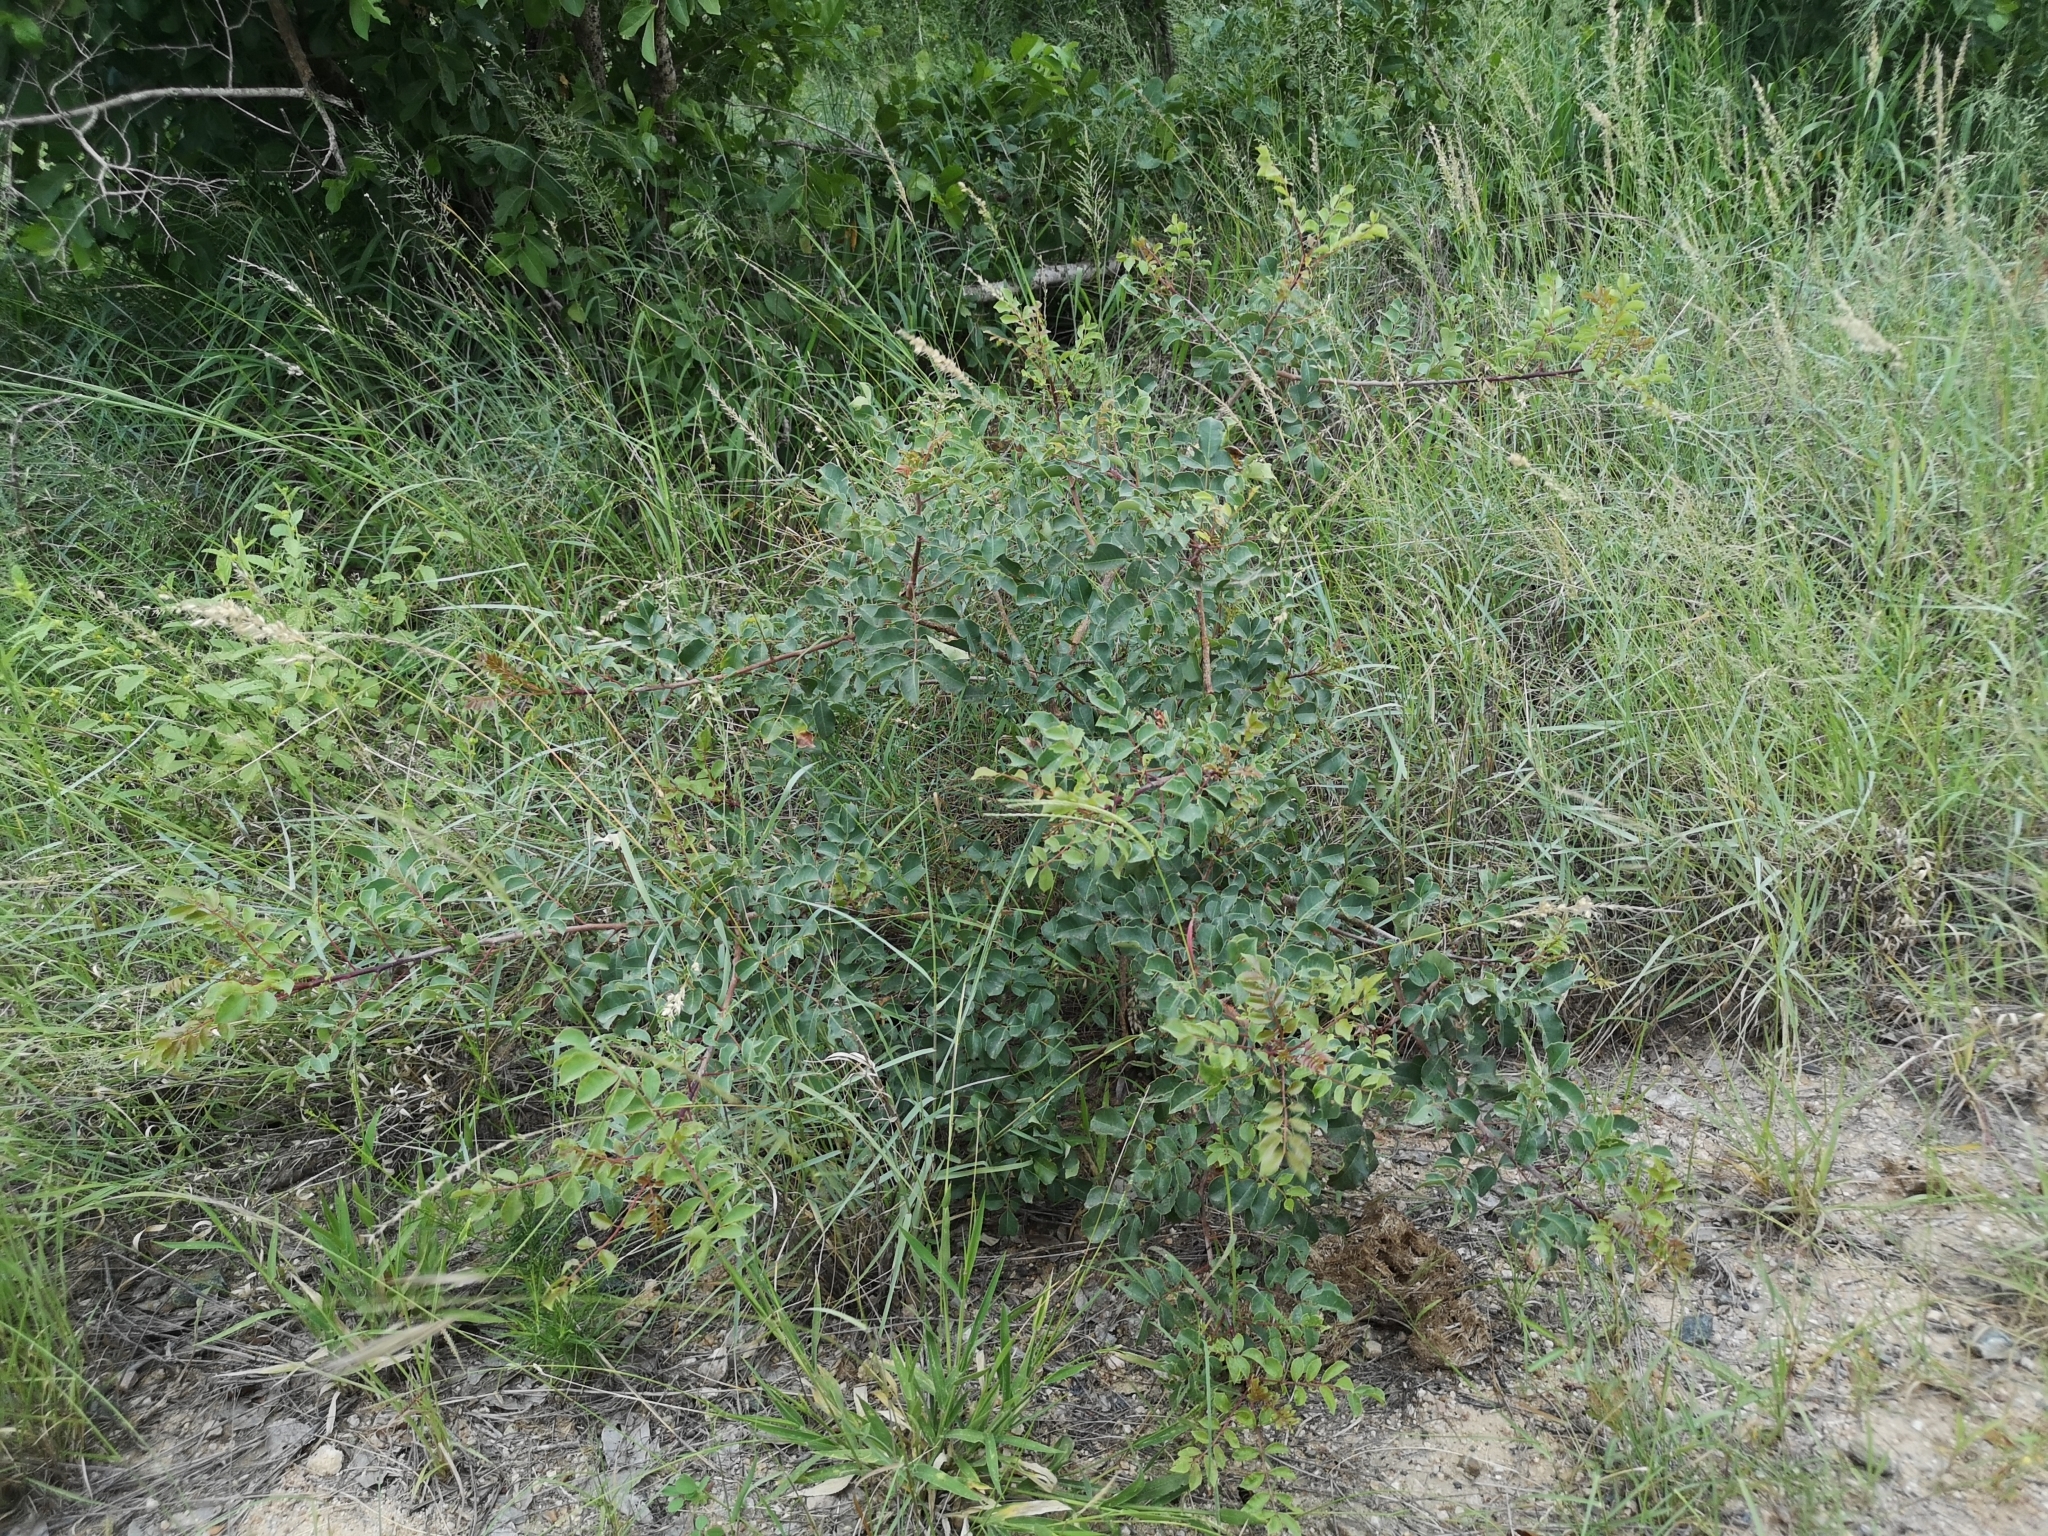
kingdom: Plantae
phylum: Tracheophyta
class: Magnoliopsida
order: Sapindales
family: Anacardiaceae
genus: Sclerocarya
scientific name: Sclerocarya birrea
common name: Marula
